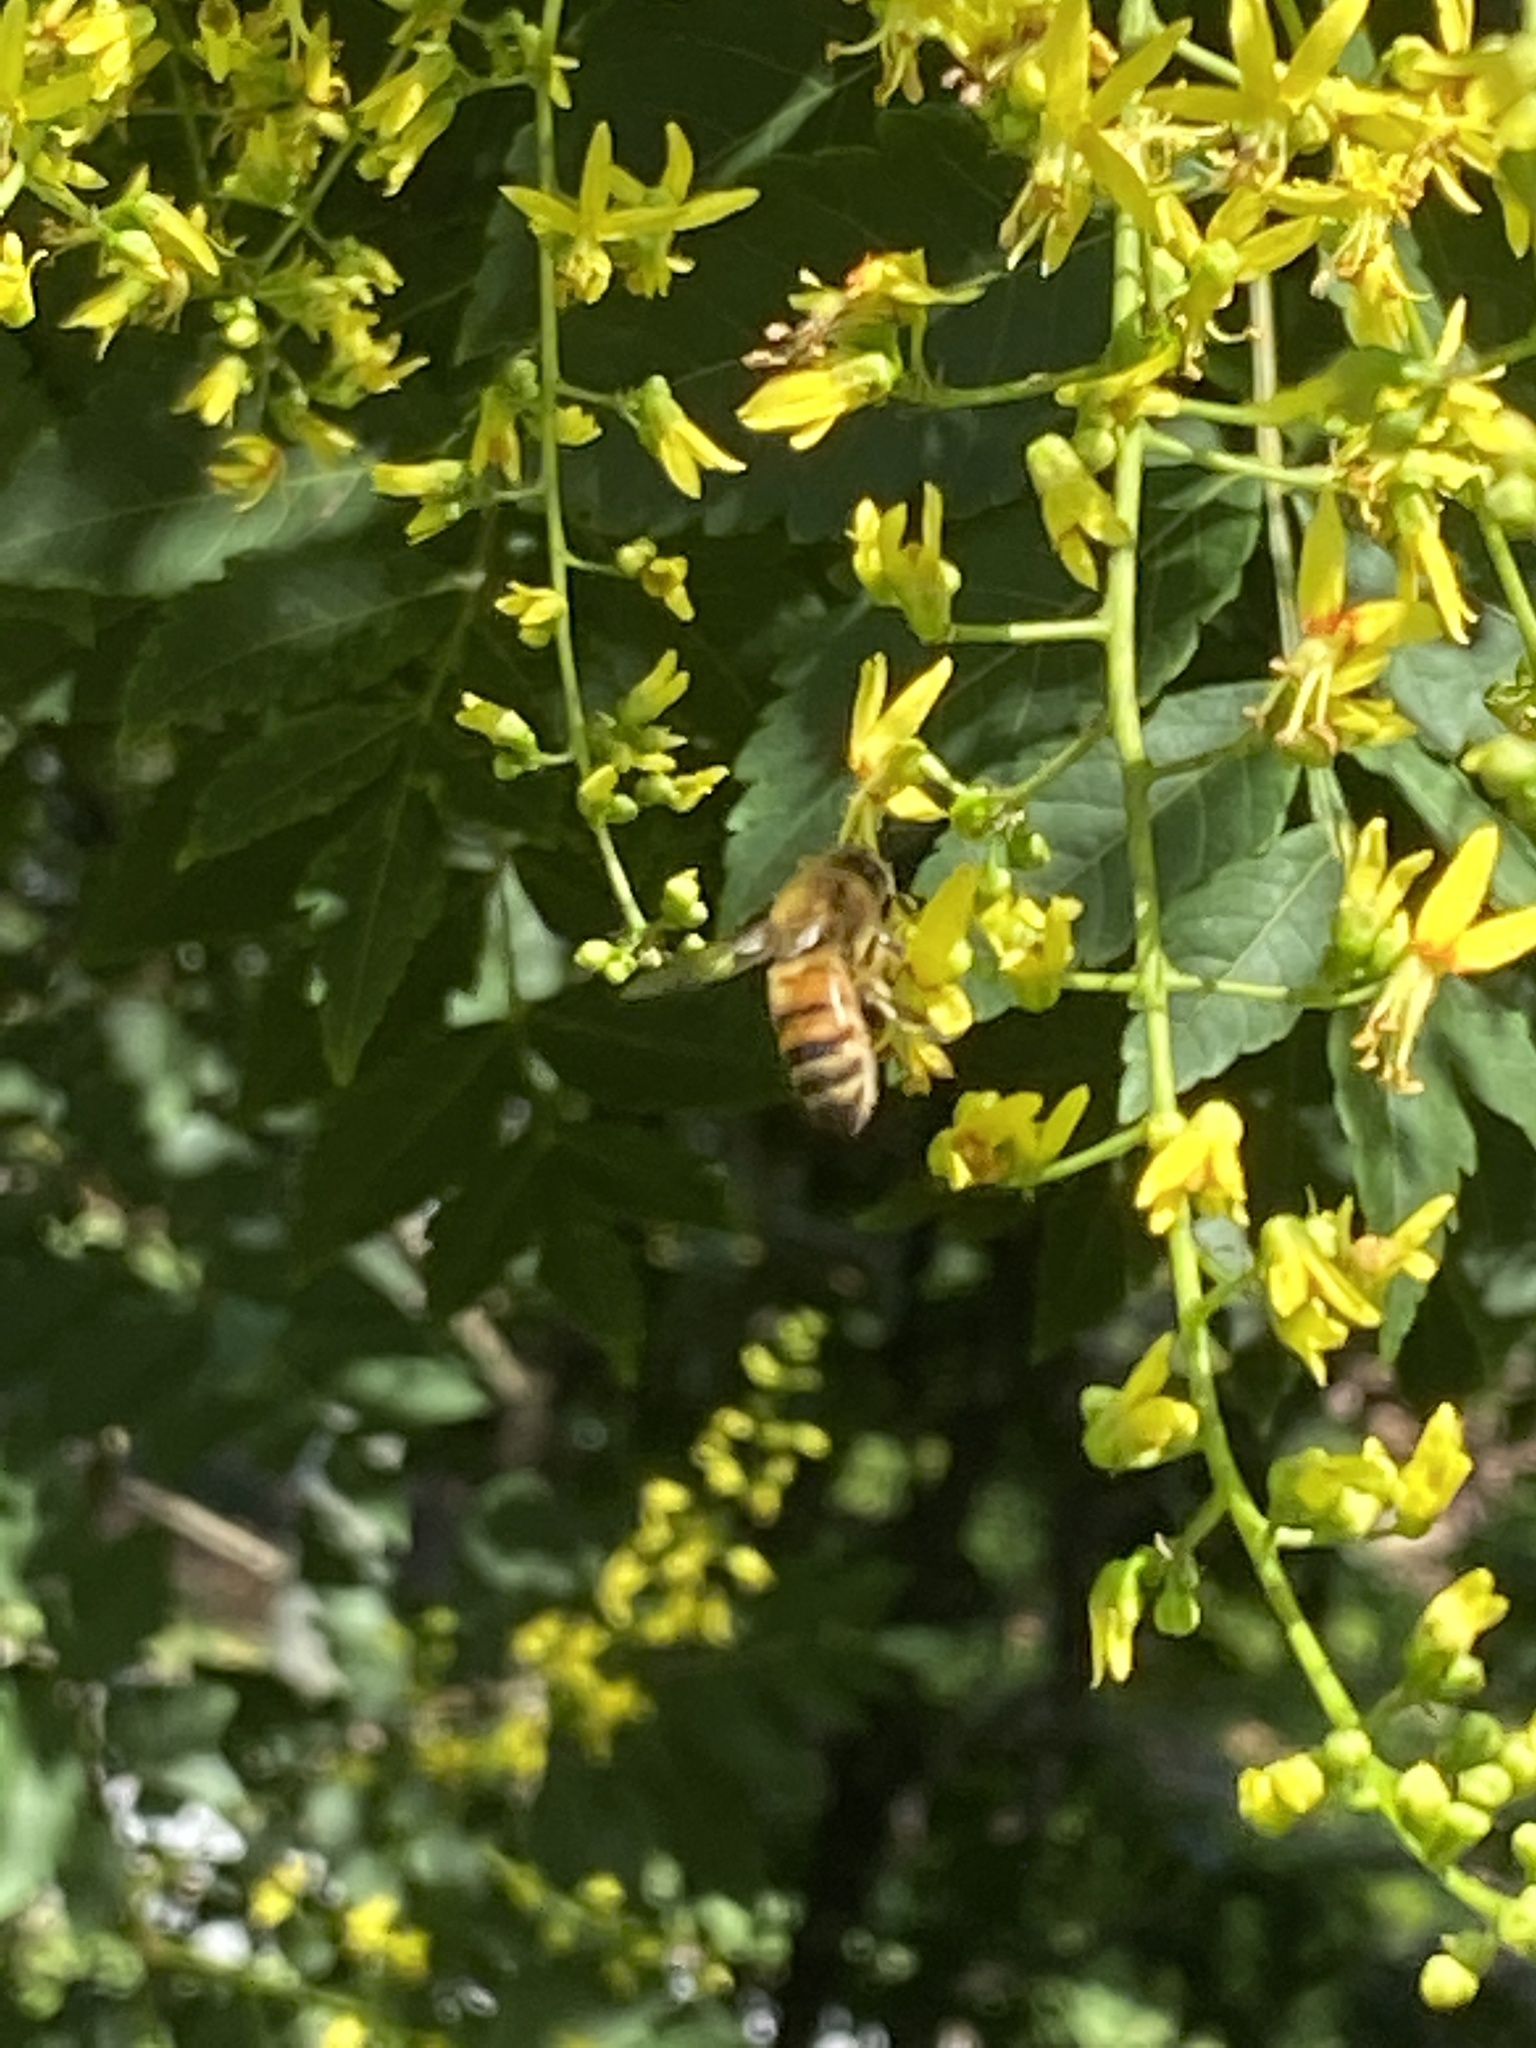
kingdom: Animalia
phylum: Arthropoda
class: Insecta
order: Hymenoptera
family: Apidae
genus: Apis
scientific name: Apis mellifera
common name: Honey bee
